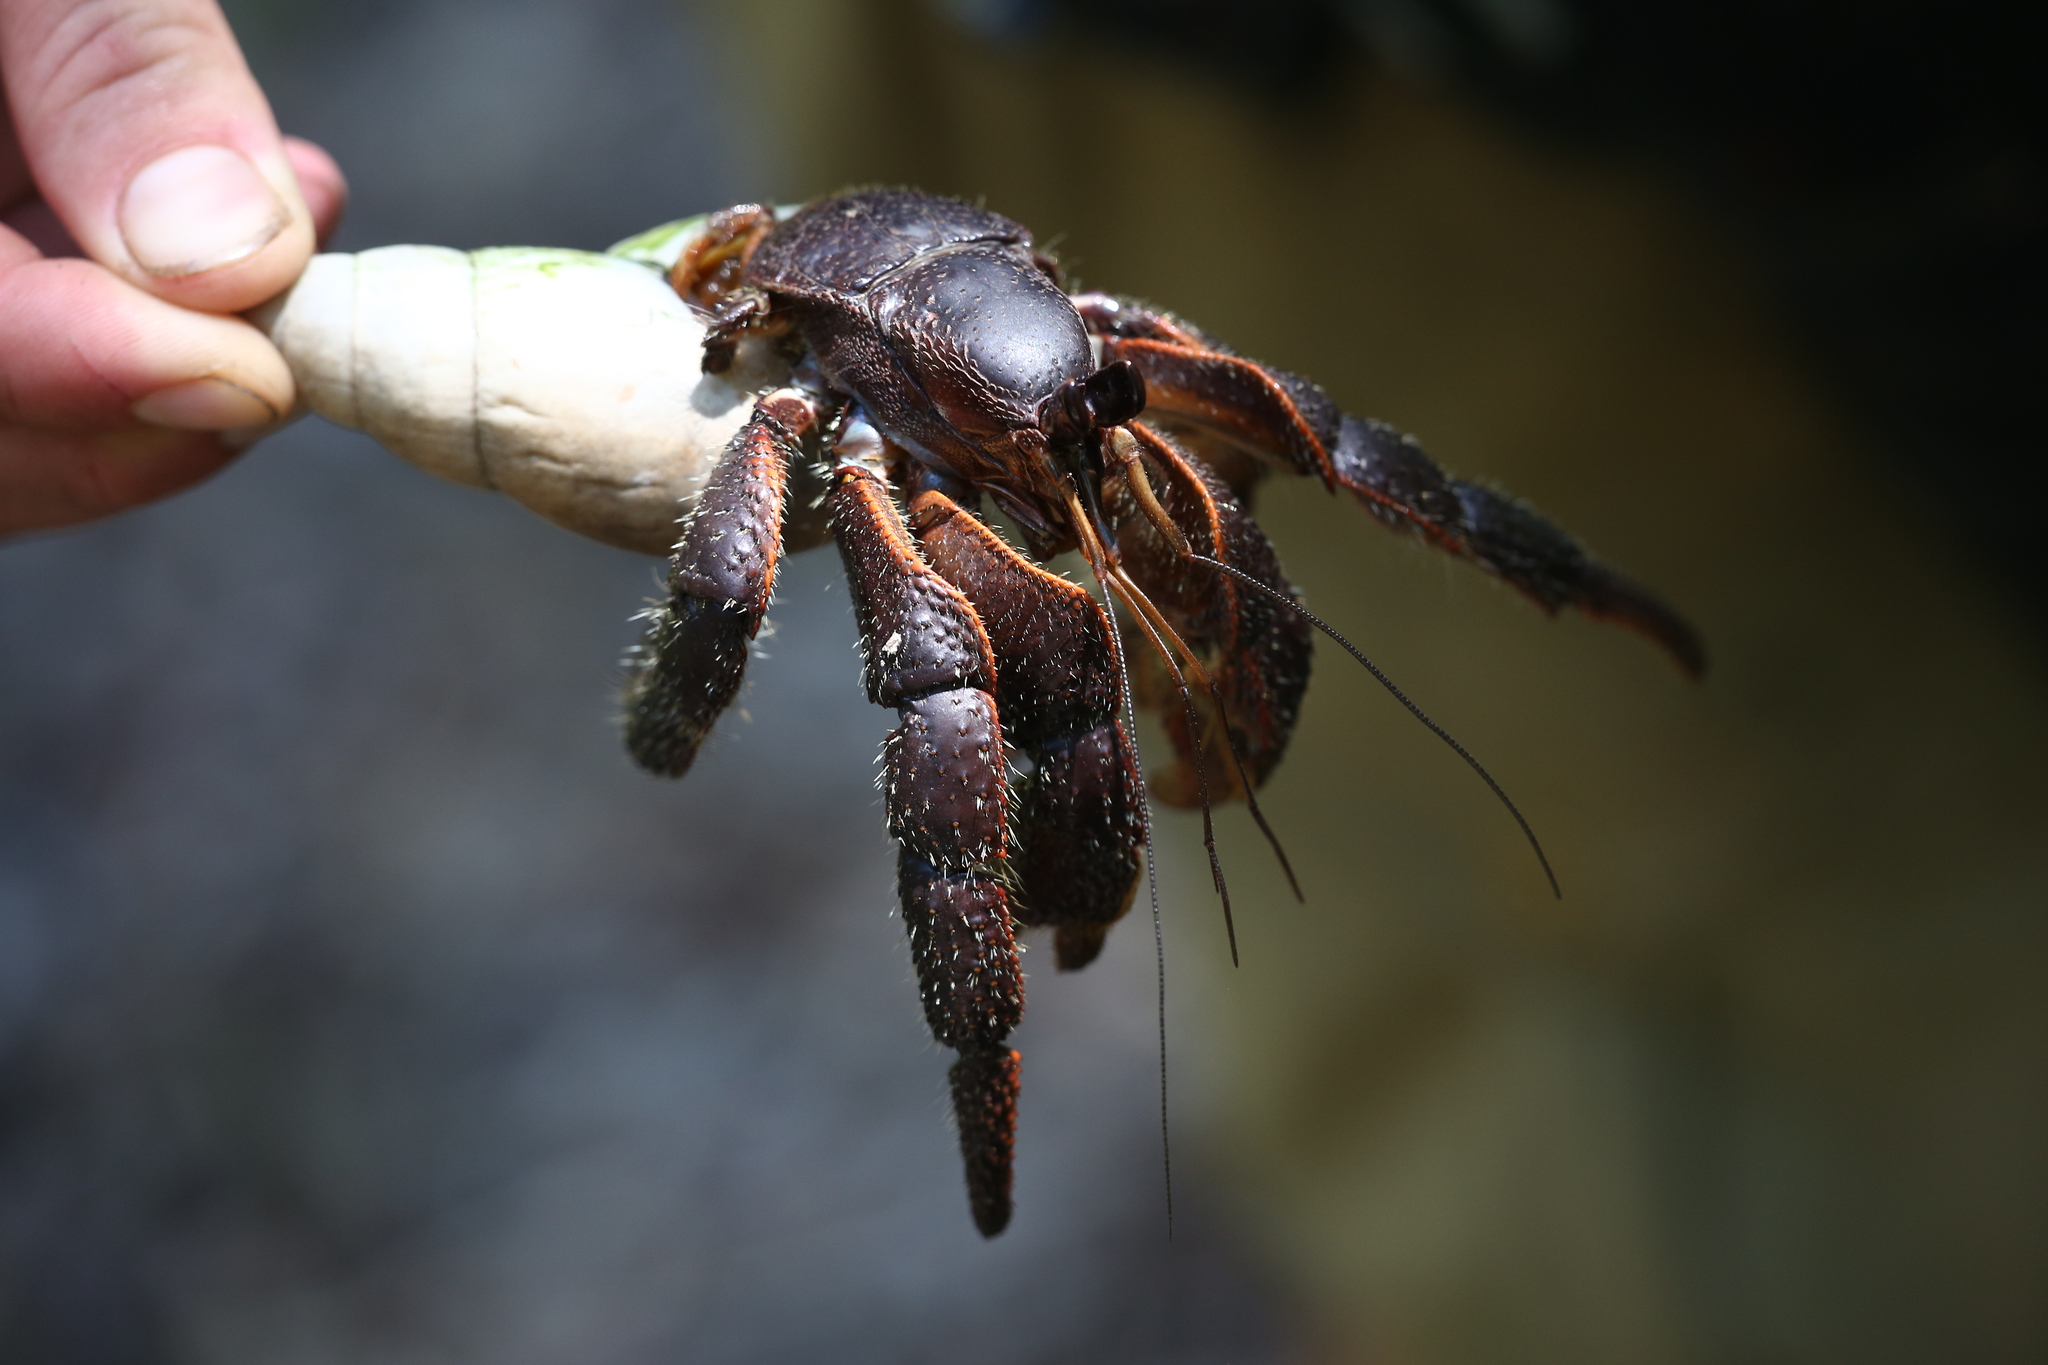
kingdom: Animalia
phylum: Arthropoda
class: Malacostraca
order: Decapoda
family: Coenobitidae
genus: Coenobita
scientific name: Coenobita spinosus
